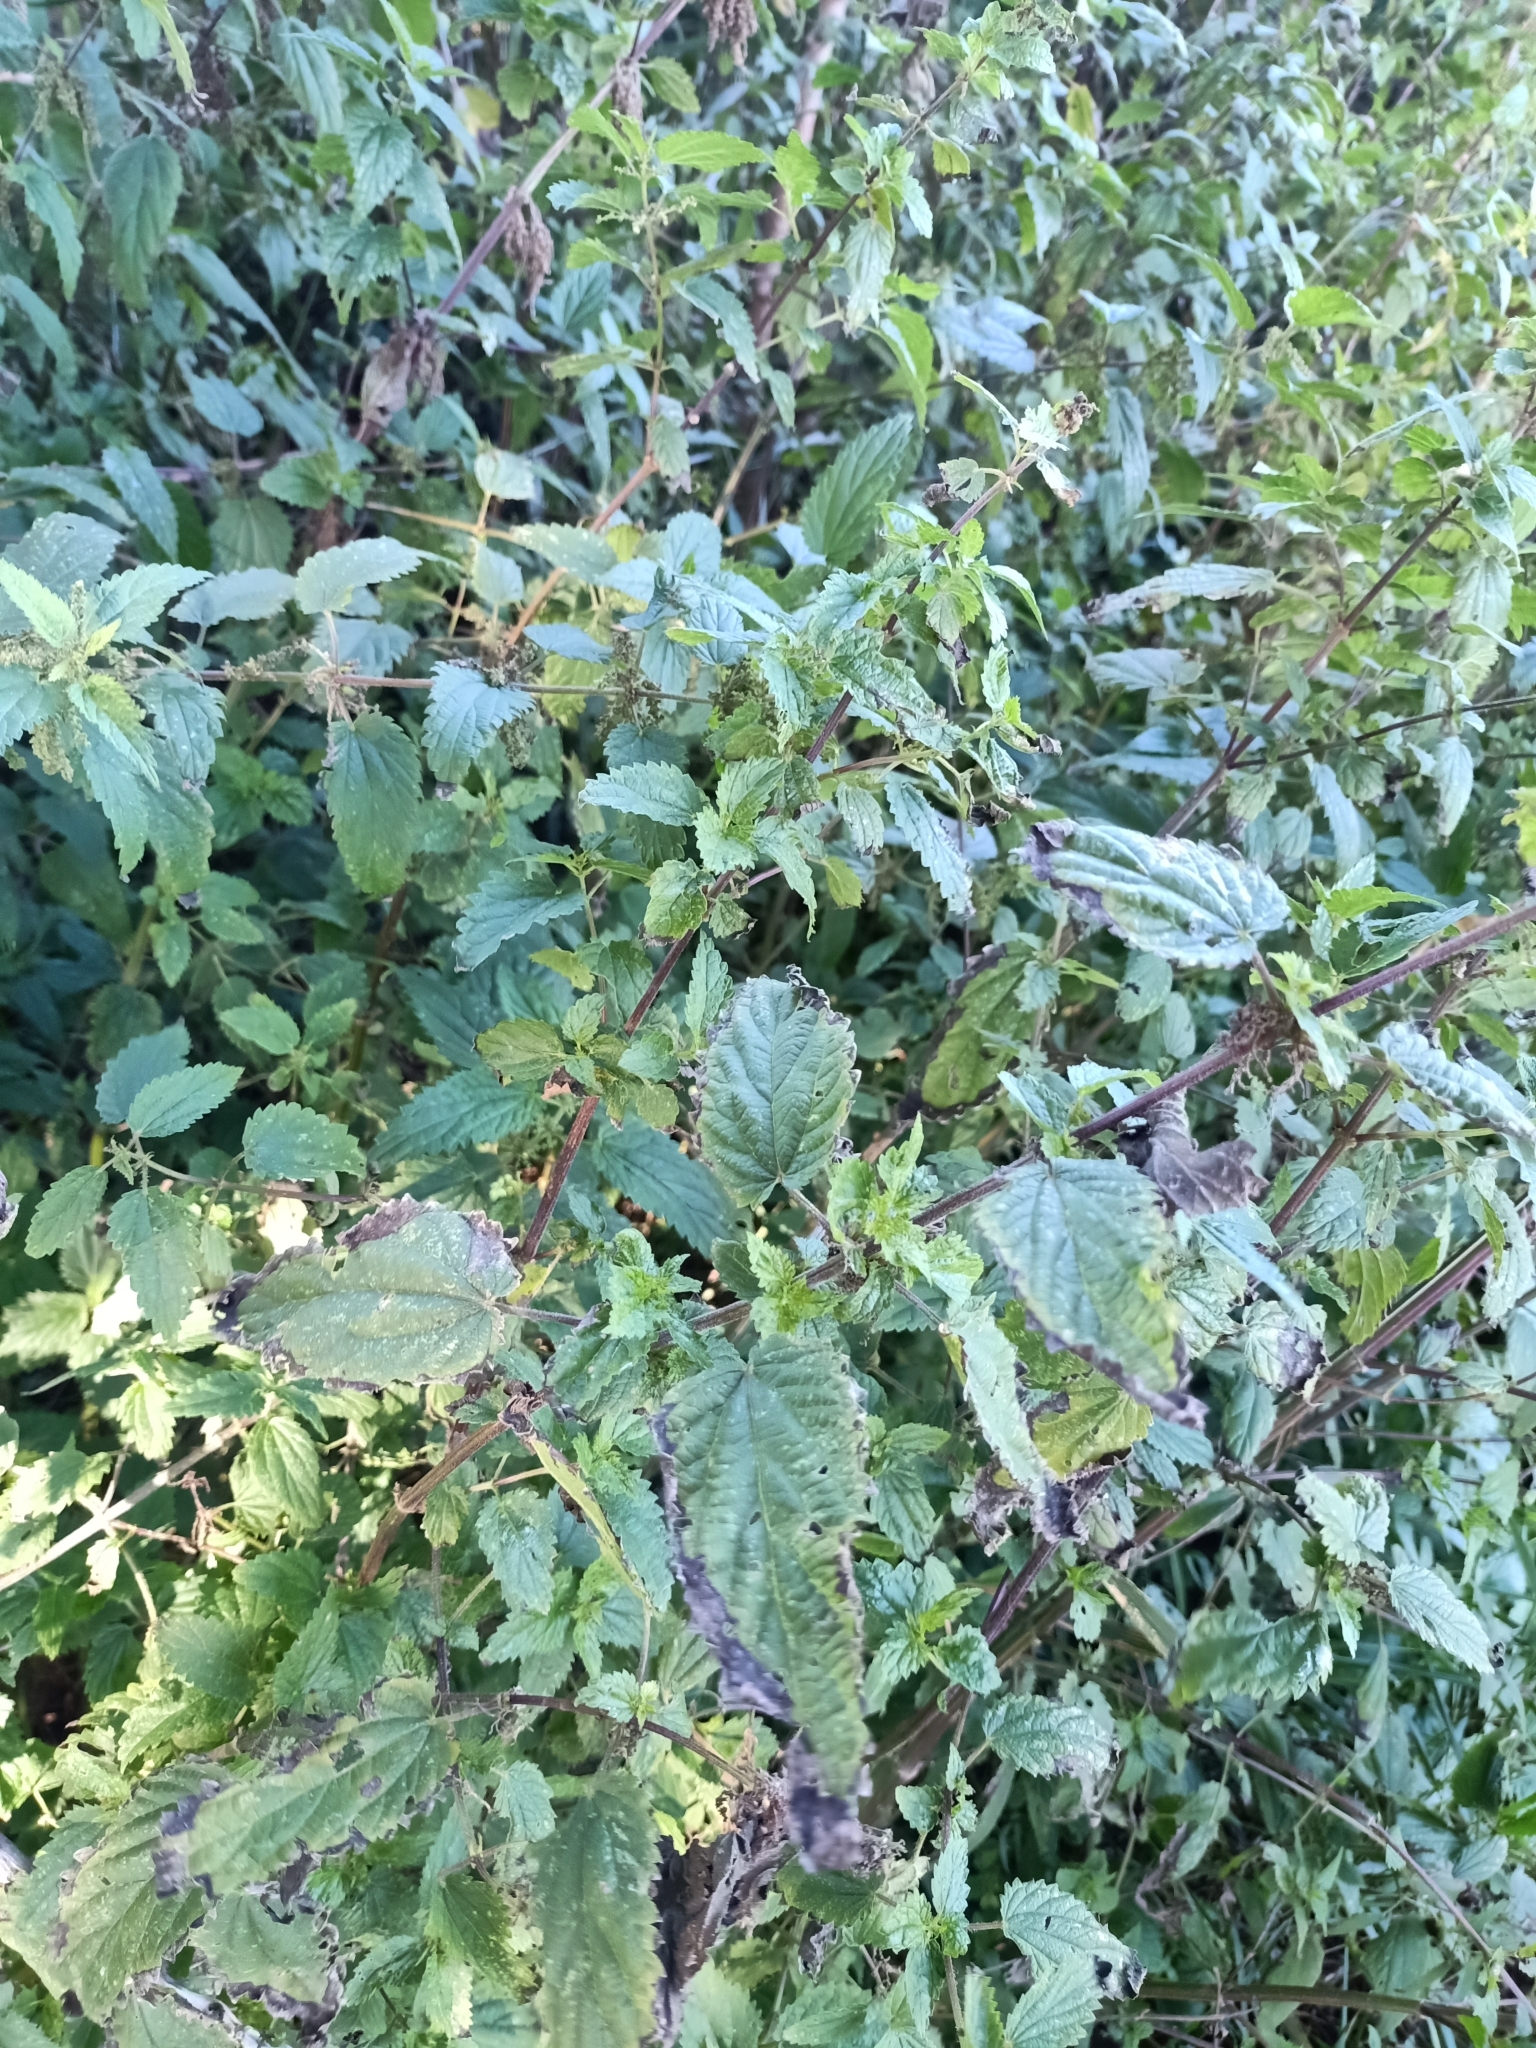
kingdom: Plantae
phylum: Tracheophyta
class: Magnoliopsida
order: Rosales
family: Urticaceae
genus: Urtica
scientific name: Urtica dioica
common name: Common nettle
